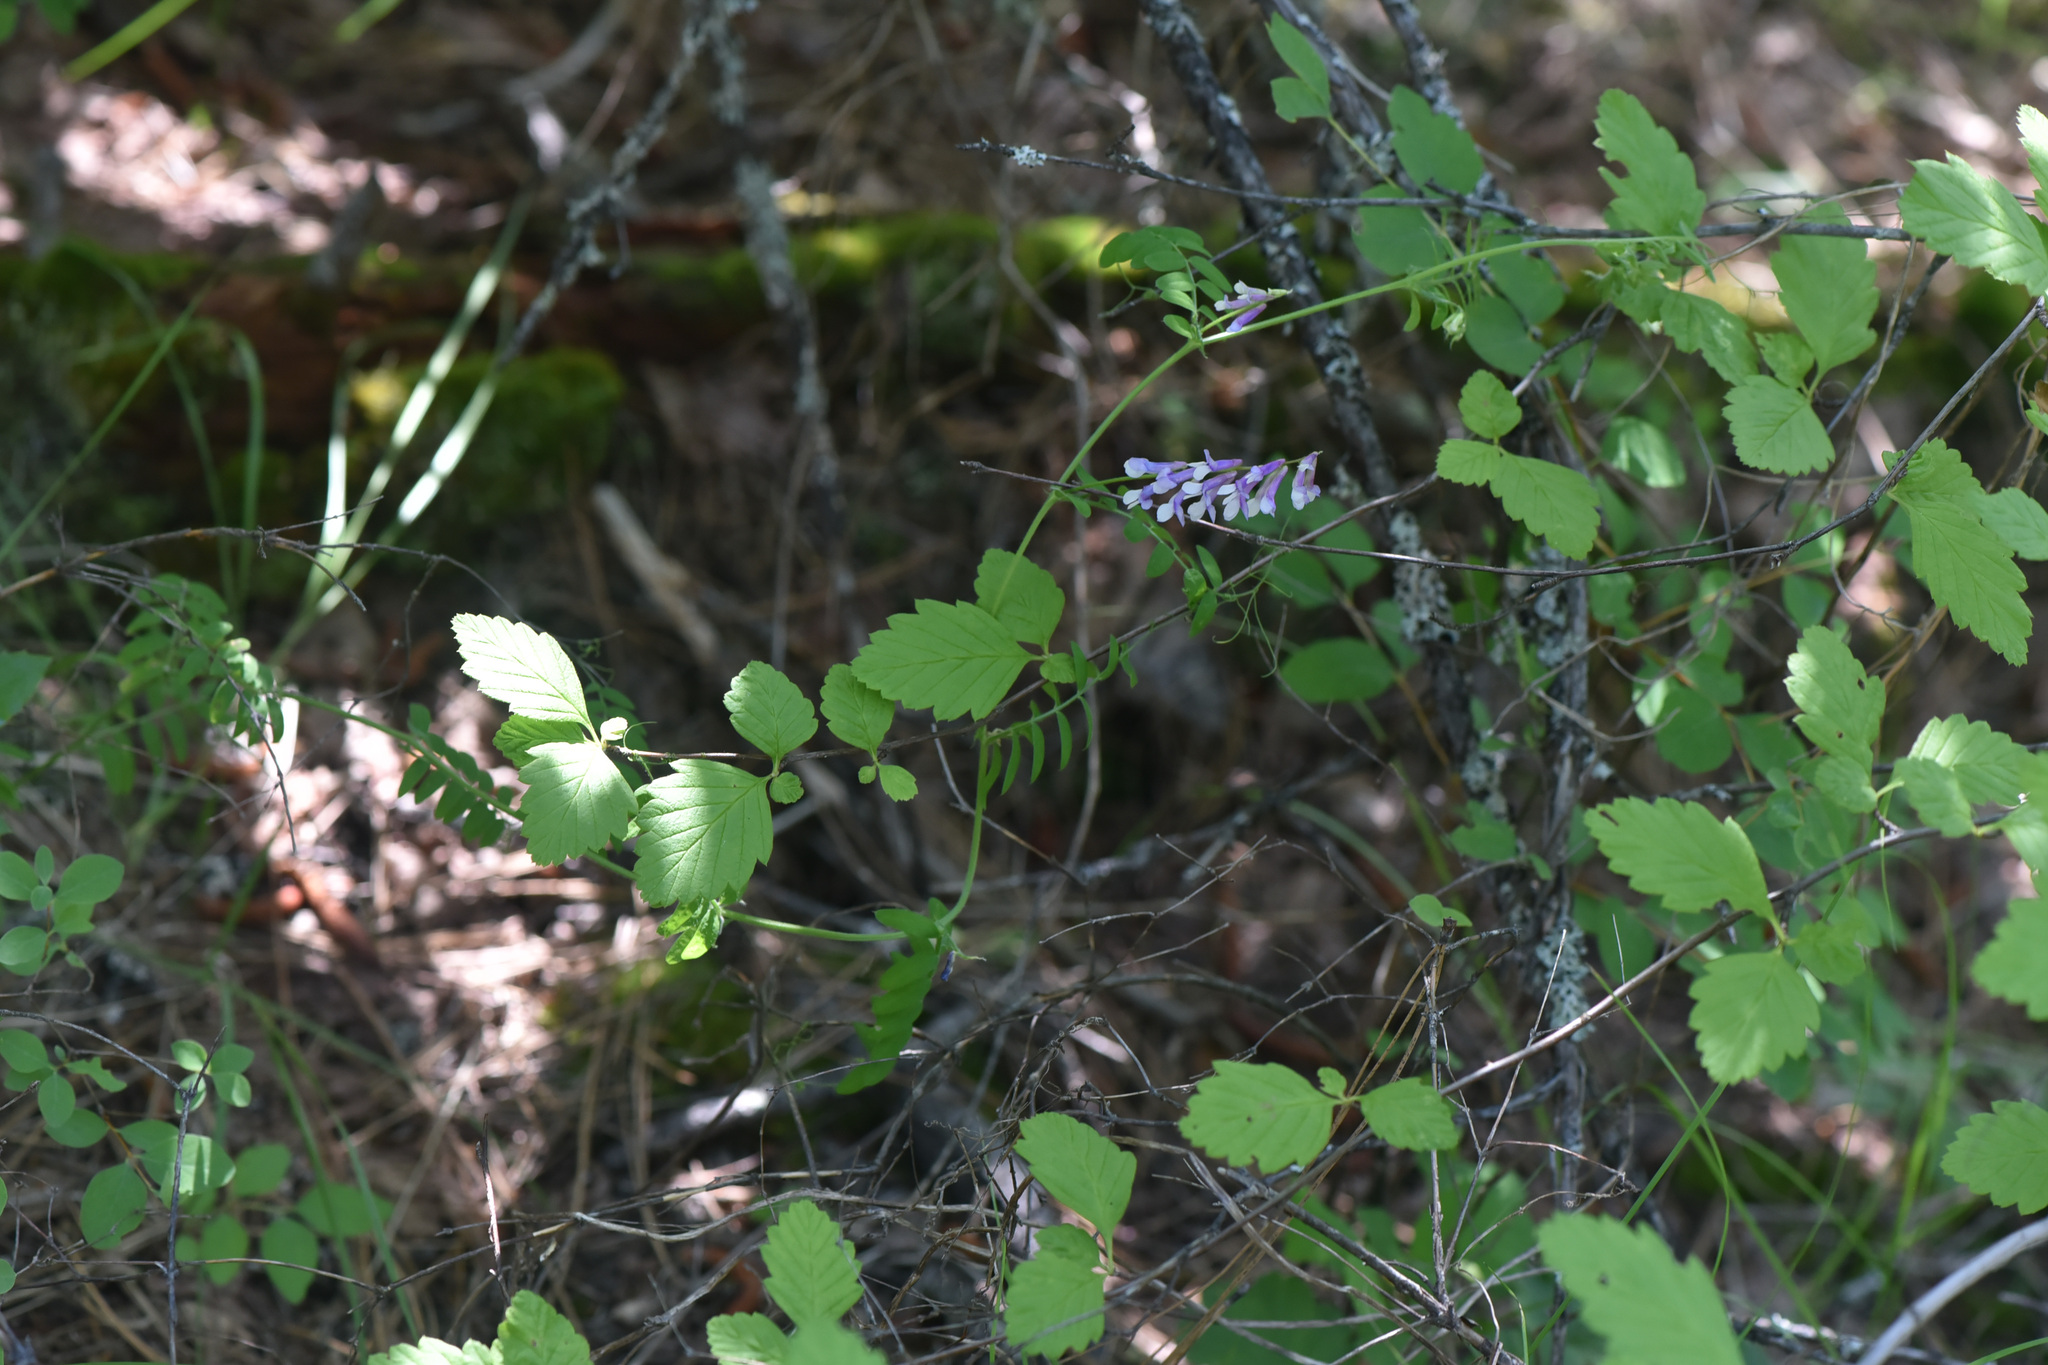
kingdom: Plantae
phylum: Tracheophyta
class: Magnoliopsida
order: Rosales
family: Rosaceae
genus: Holodiscus
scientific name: Holodiscus discolor
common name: Oceanspray
